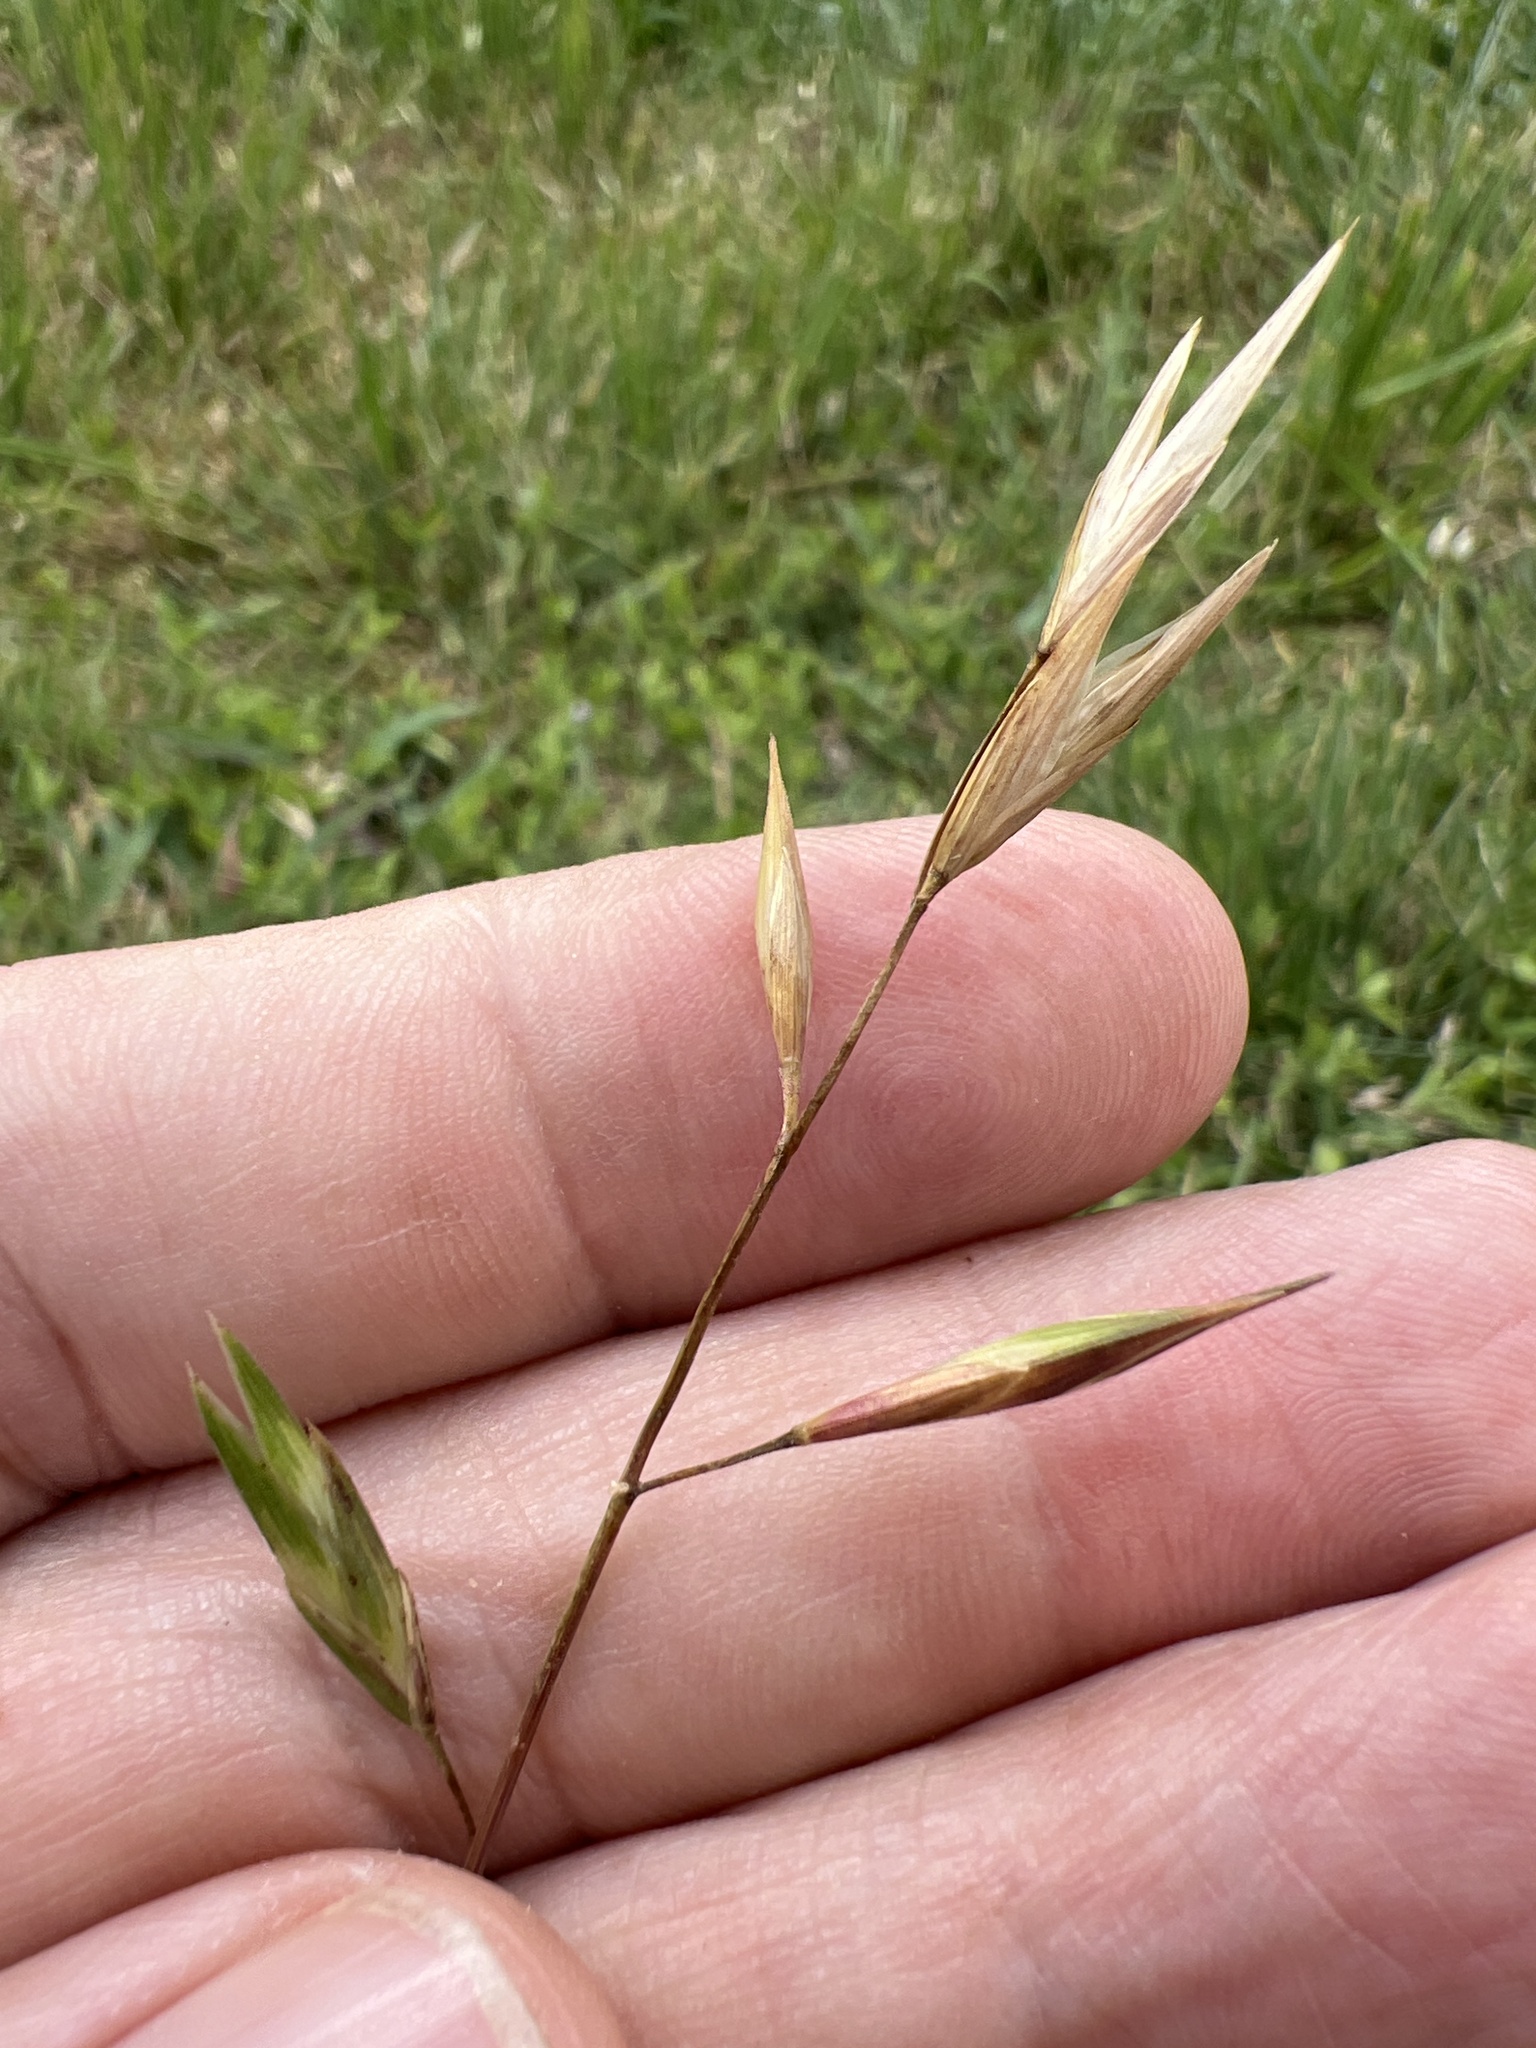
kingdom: Plantae
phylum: Tracheophyta
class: Liliopsida
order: Poales
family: Poaceae
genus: Bromus
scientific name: Bromus catharticus
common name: Rescuegrass
